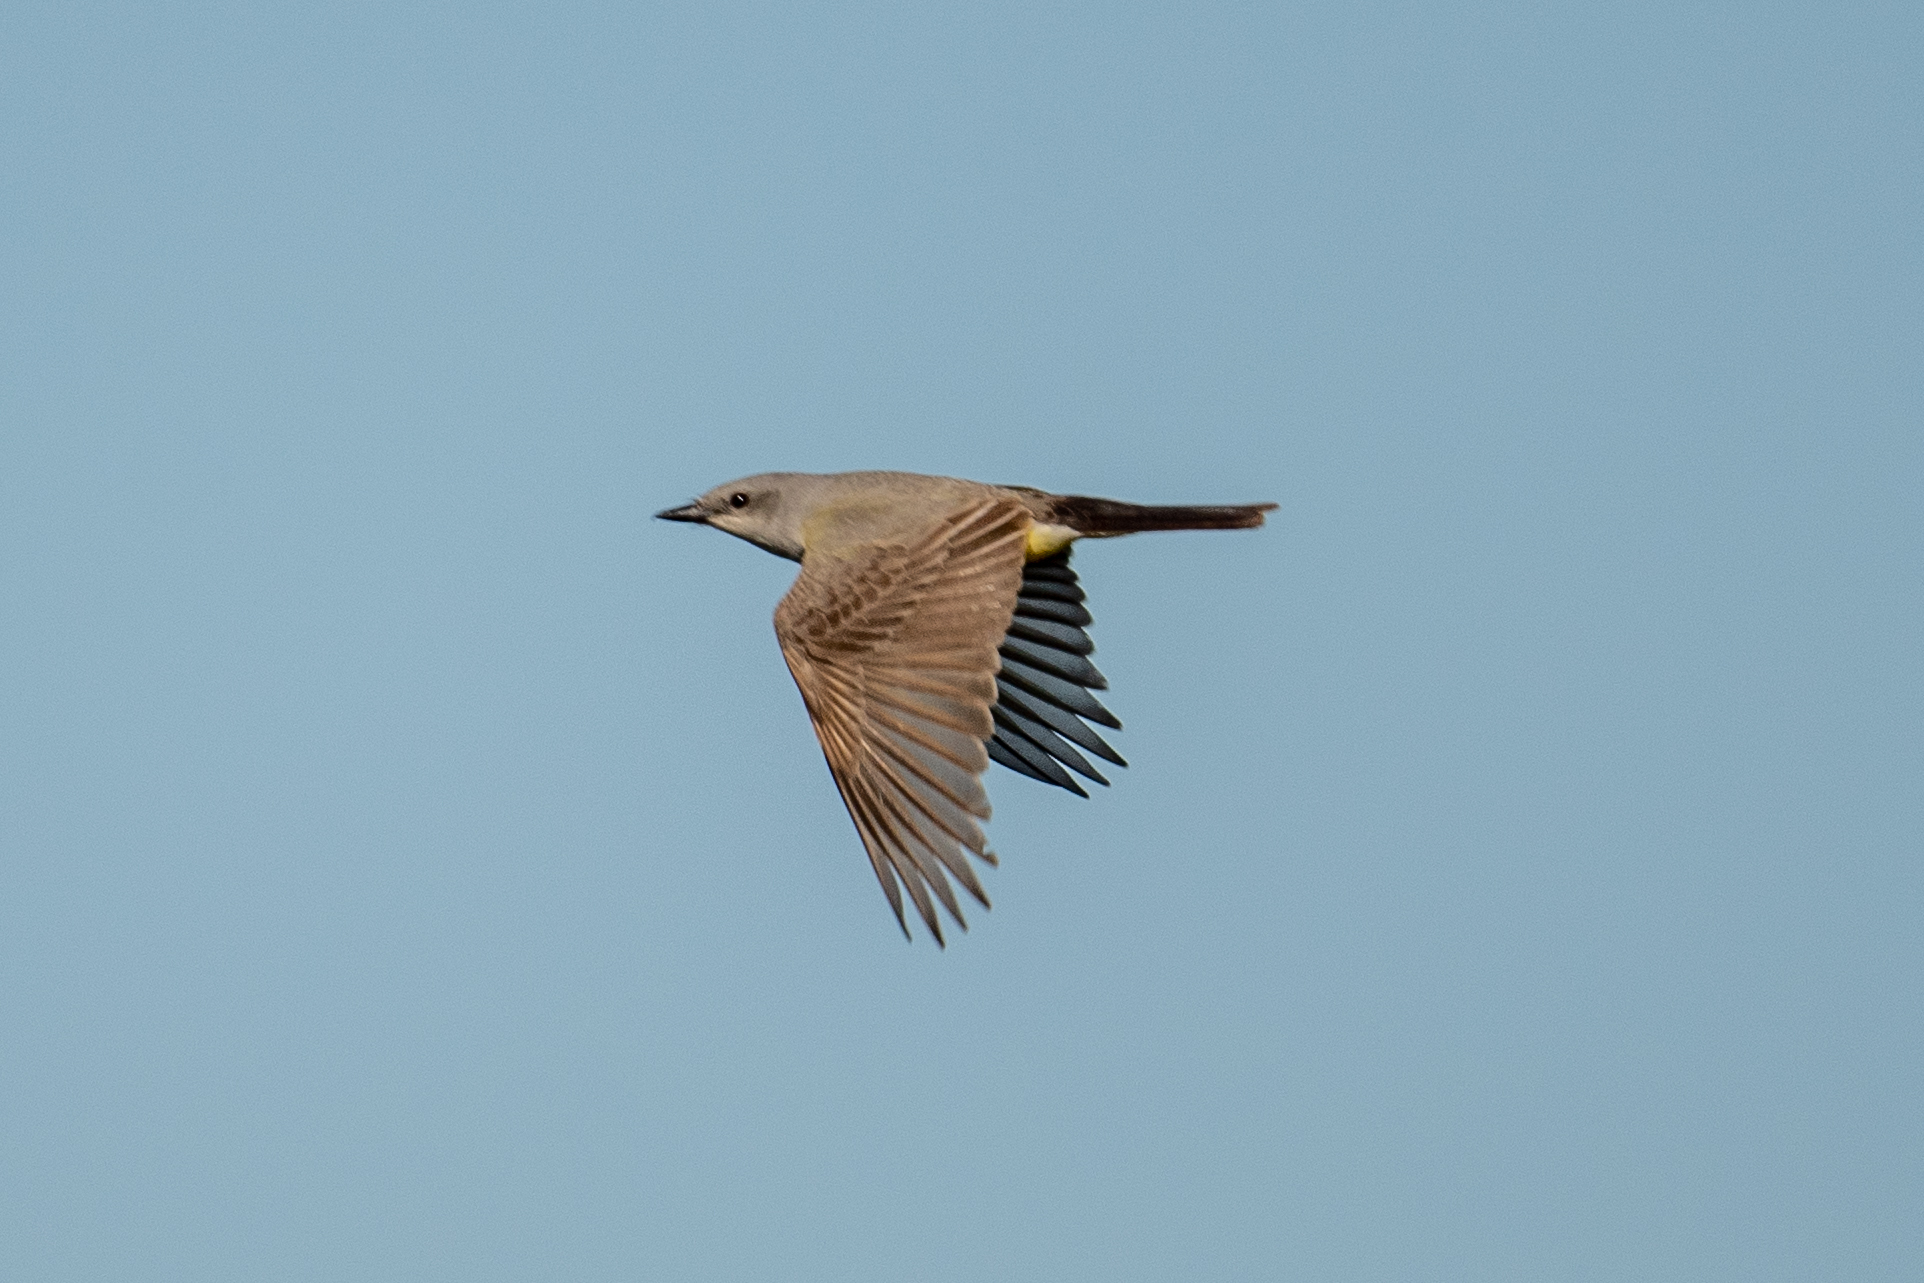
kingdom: Animalia
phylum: Chordata
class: Aves
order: Passeriformes
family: Tyrannidae
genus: Tyrannus
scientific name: Tyrannus verticalis
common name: Western kingbird
